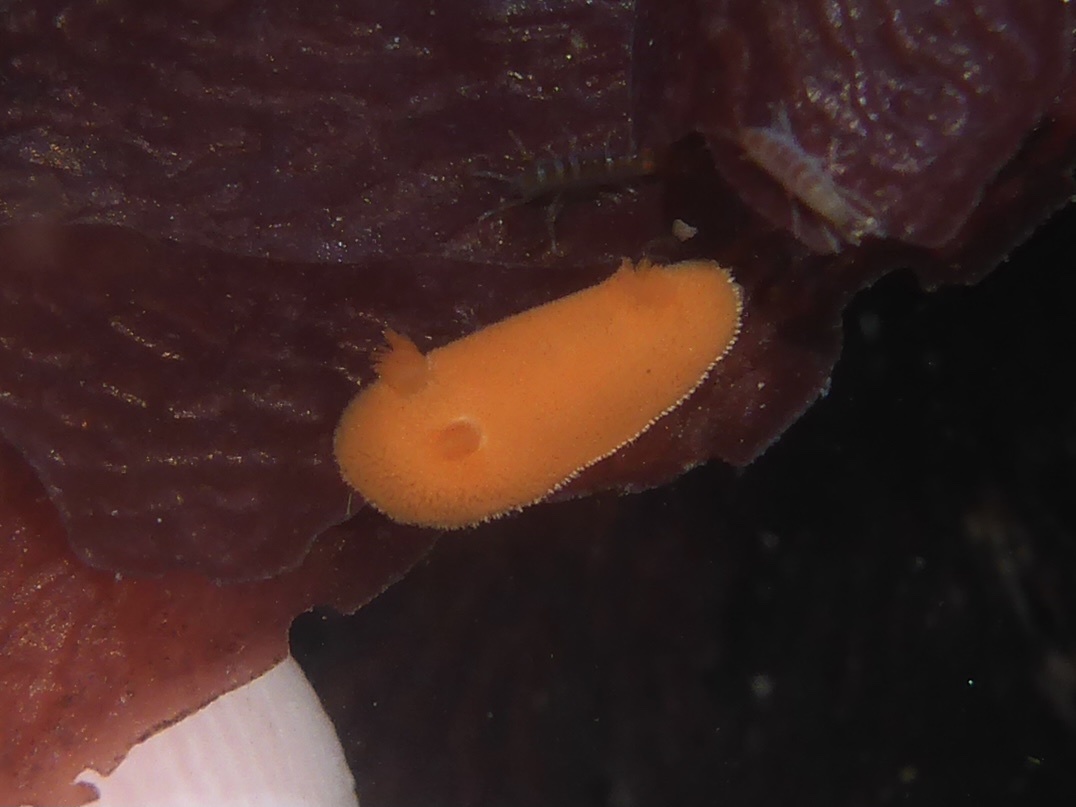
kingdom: Animalia
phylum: Mollusca
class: Gastropoda
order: Nudibranchia
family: Discodorididae
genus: Rostanga
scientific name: Rostanga pulchra
